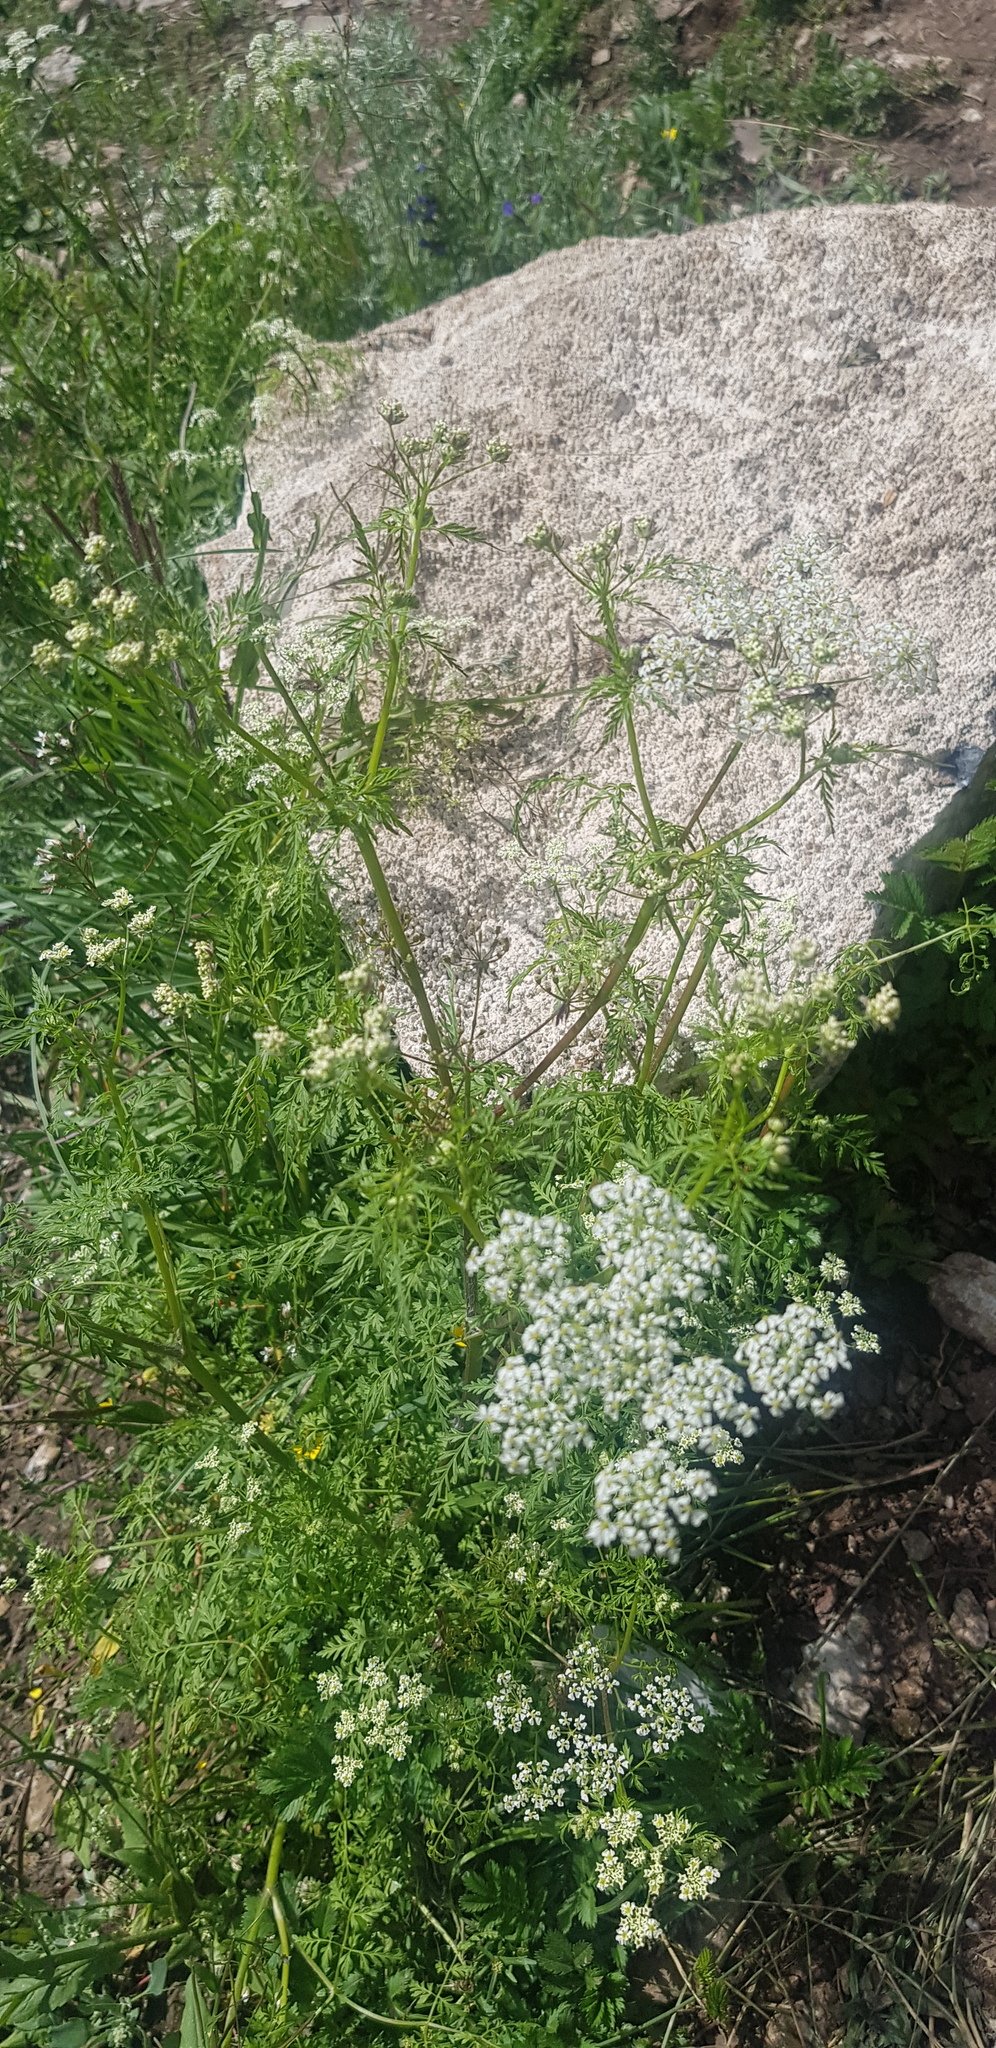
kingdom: Plantae
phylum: Tracheophyta
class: Magnoliopsida
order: Apiales
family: Apiaceae
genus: Sphallerocarpus
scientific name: Sphallerocarpus gracilis
